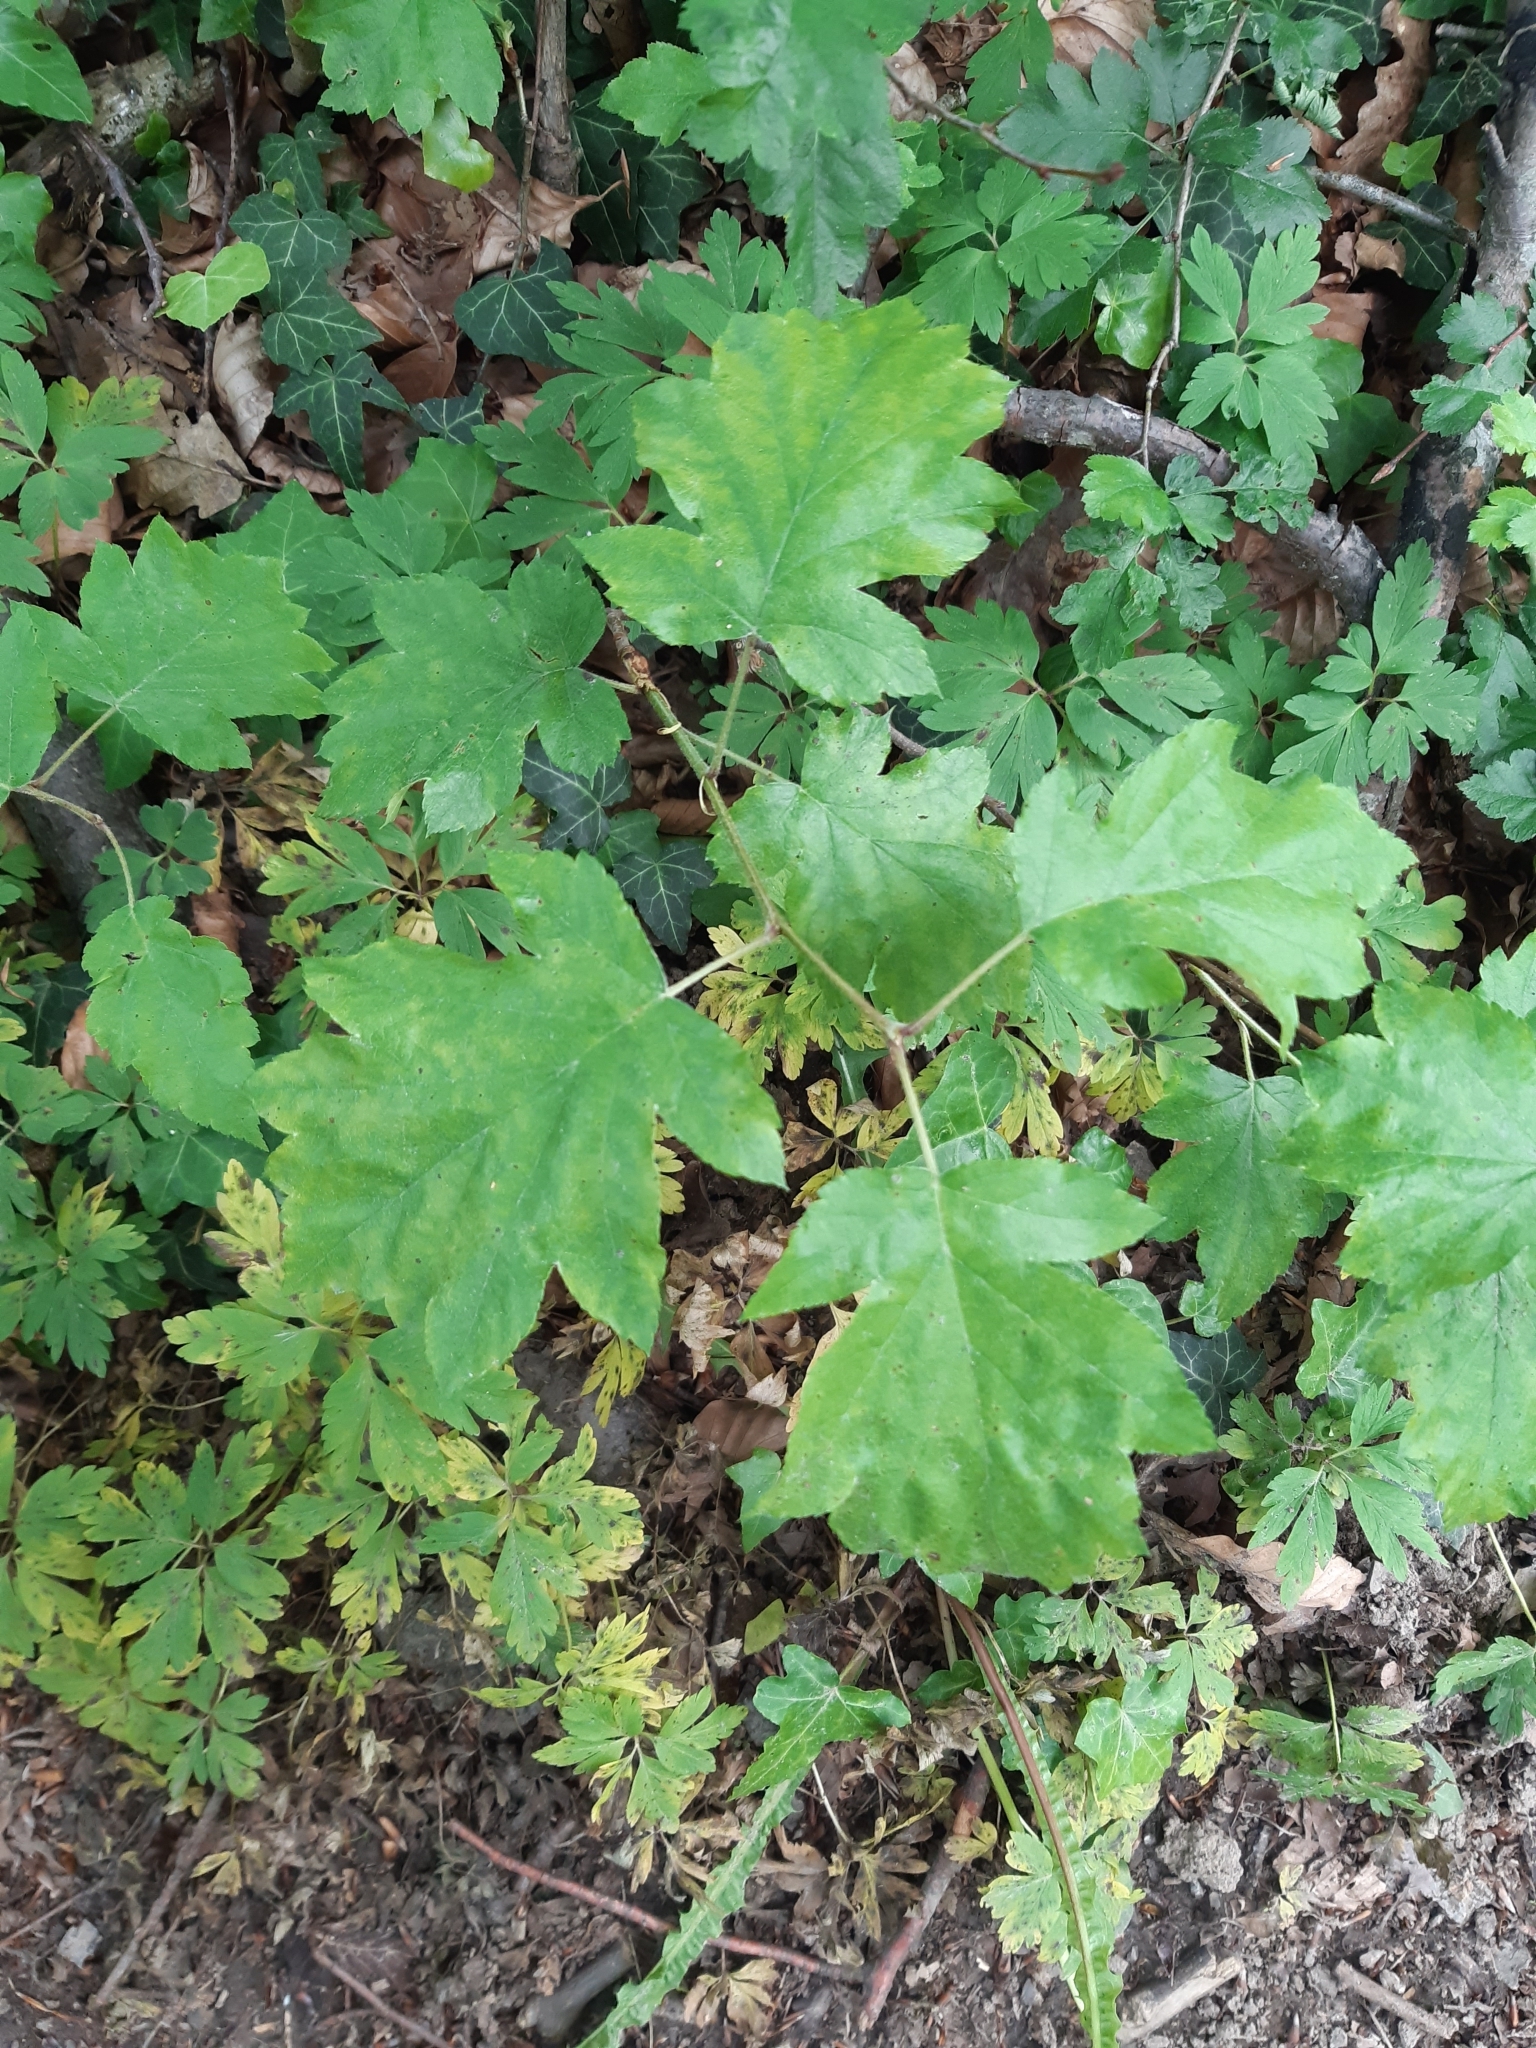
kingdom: Plantae
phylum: Tracheophyta
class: Magnoliopsida
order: Rosales
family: Rosaceae
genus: Torminalis
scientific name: Torminalis glaberrima
